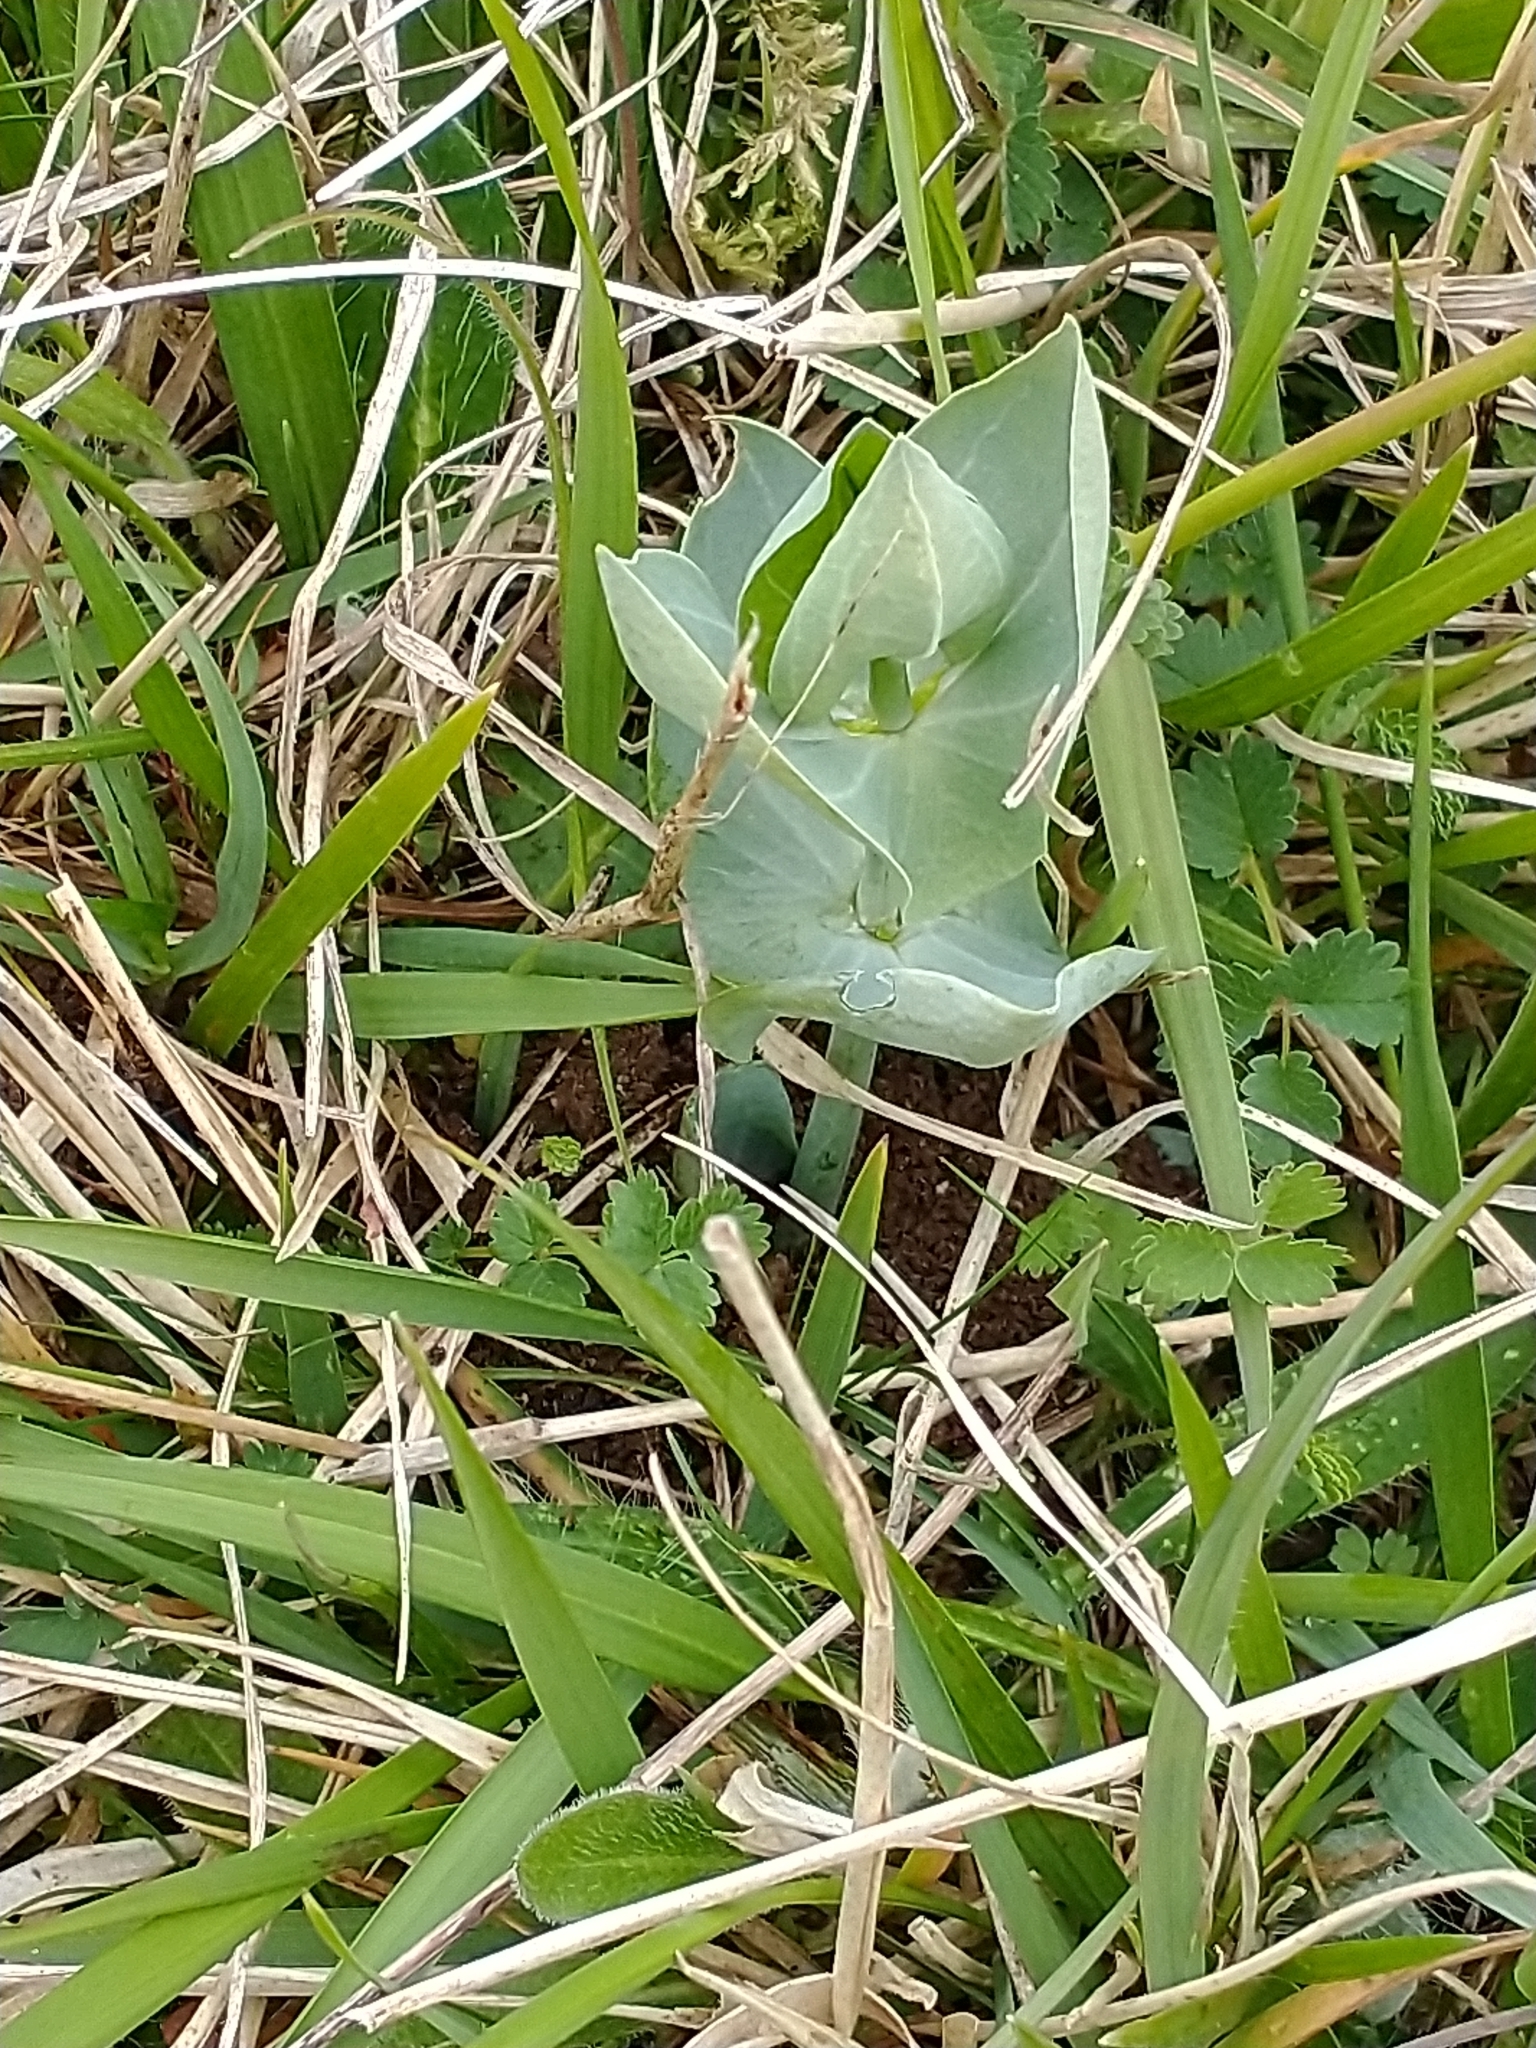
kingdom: Plantae
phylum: Tracheophyta
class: Magnoliopsida
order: Gentianales
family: Gentianaceae
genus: Blackstonia
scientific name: Blackstonia perfoliata
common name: Yellow-wort
